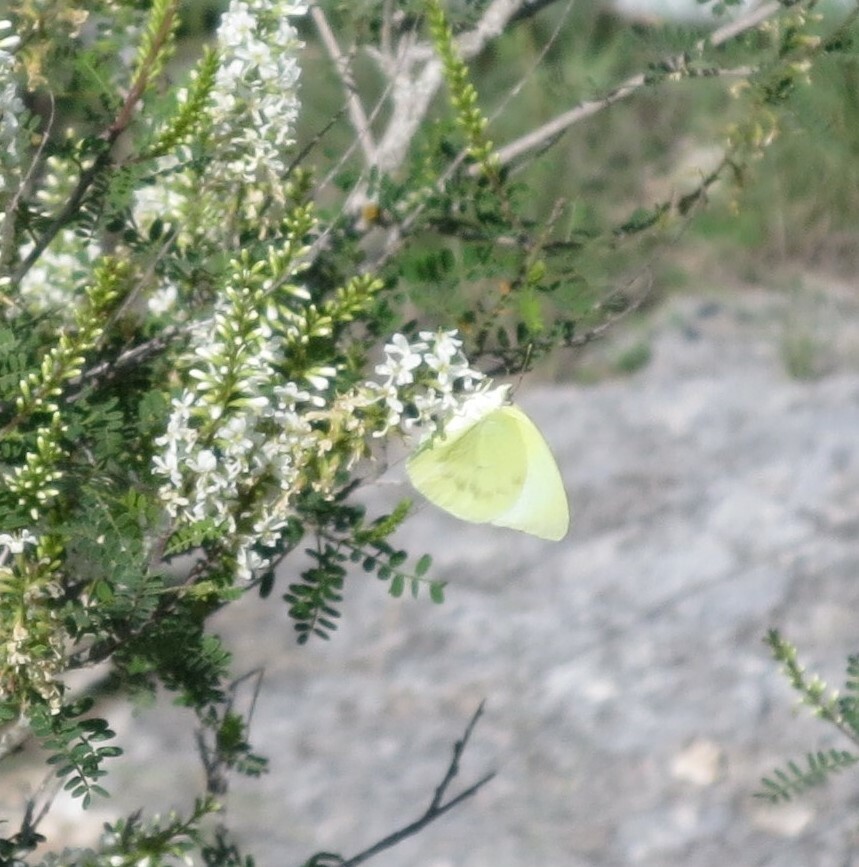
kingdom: Animalia
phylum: Arthropoda
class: Insecta
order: Lepidoptera
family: Pieridae
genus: Kricogonia
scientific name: Kricogonia lyside
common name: Guayacan sulphur,
